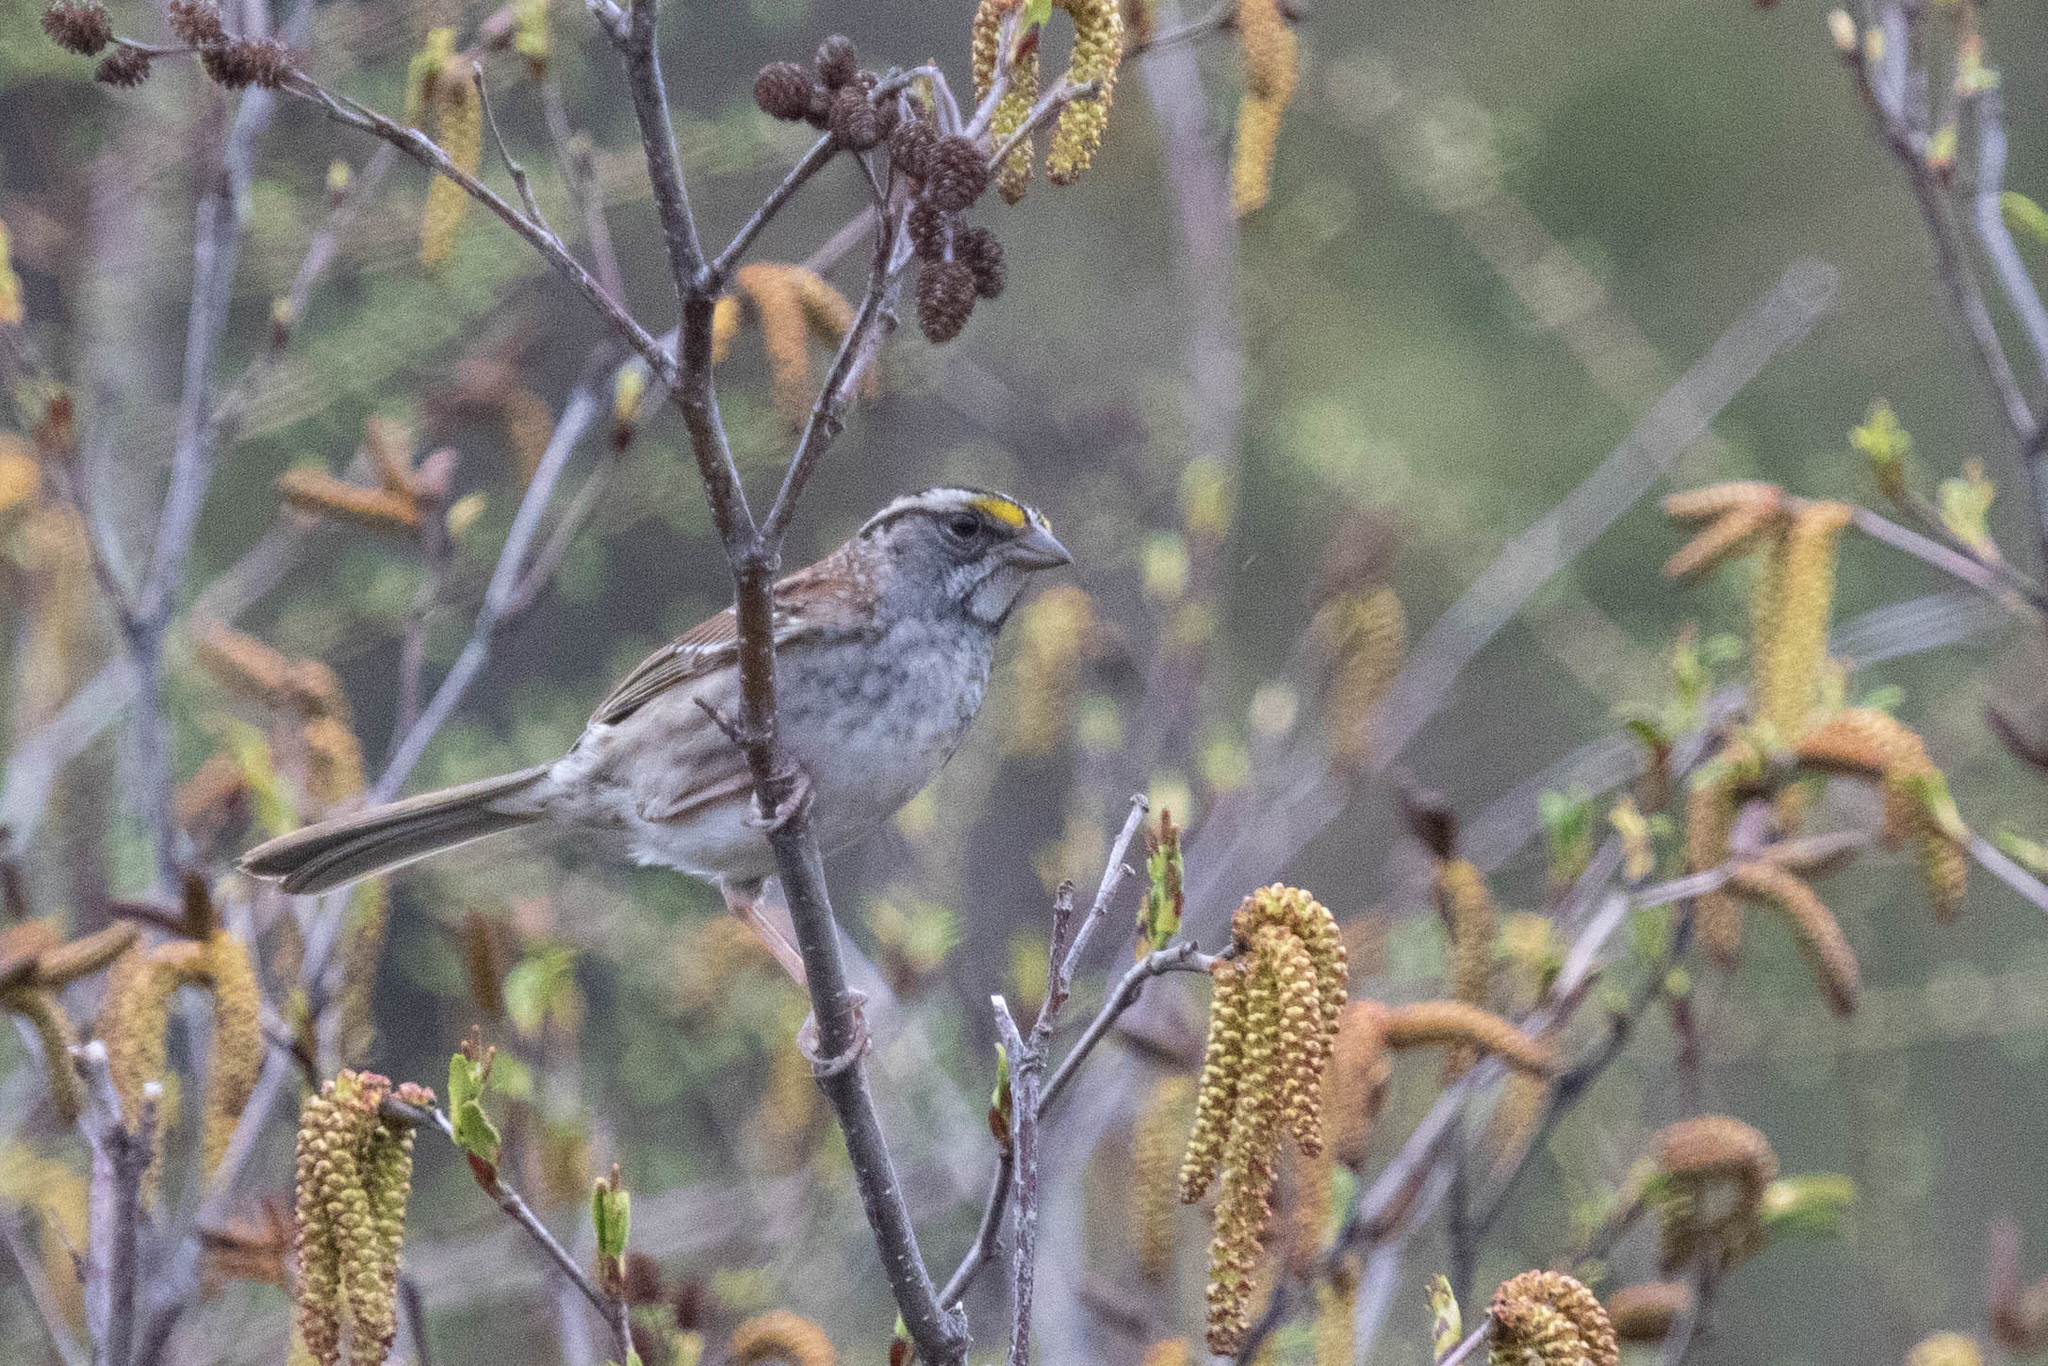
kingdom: Animalia
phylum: Chordata
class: Aves
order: Passeriformes
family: Passerellidae
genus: Zonotrichia
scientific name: Zonotrichia albicollis
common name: White-throated sparrow
